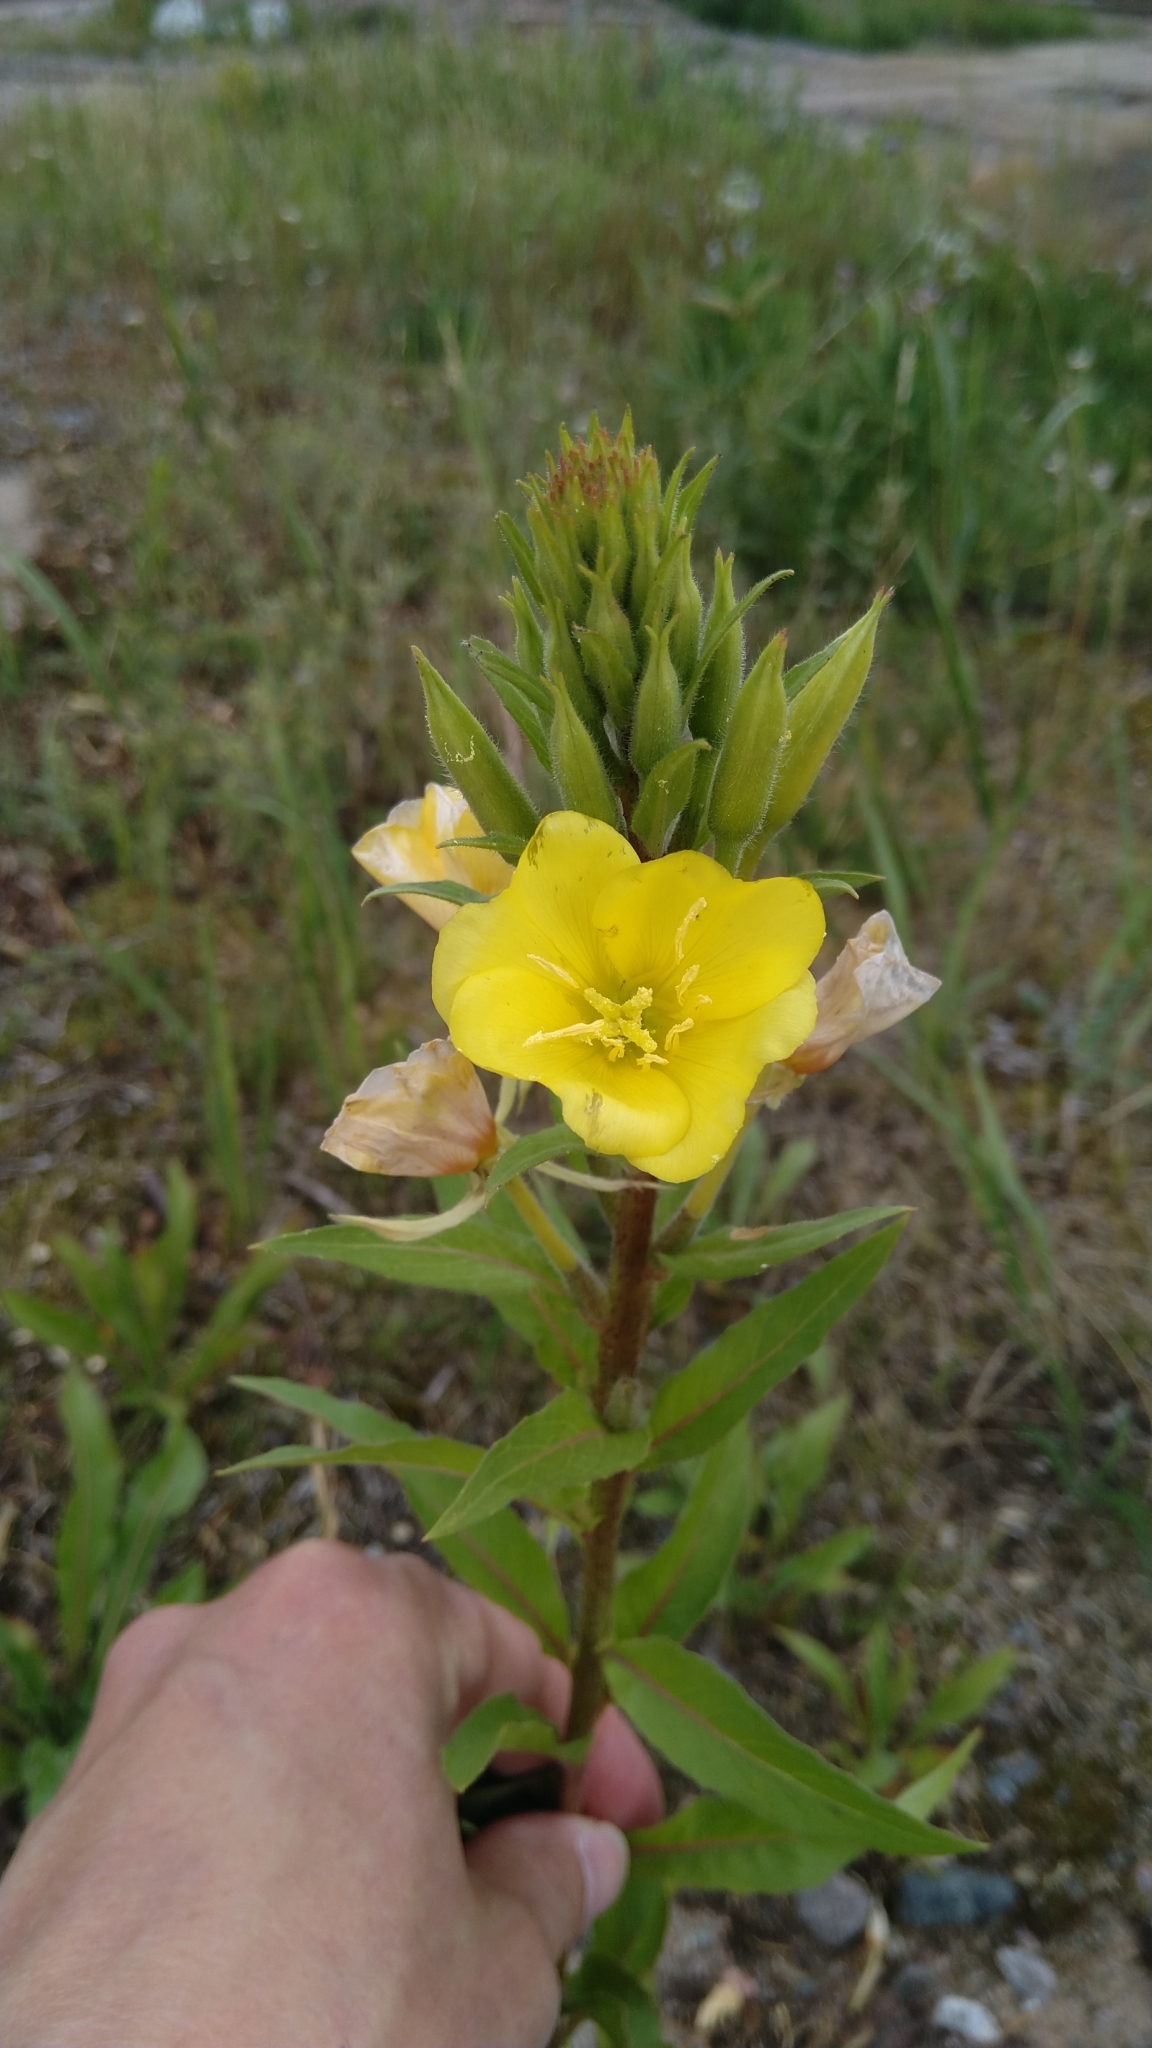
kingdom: Plantae
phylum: Tracheophyta
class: Magnoliopsida
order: Myrtales
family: Onagraceae
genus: Oenothera
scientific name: Oenothera rubricaulis
